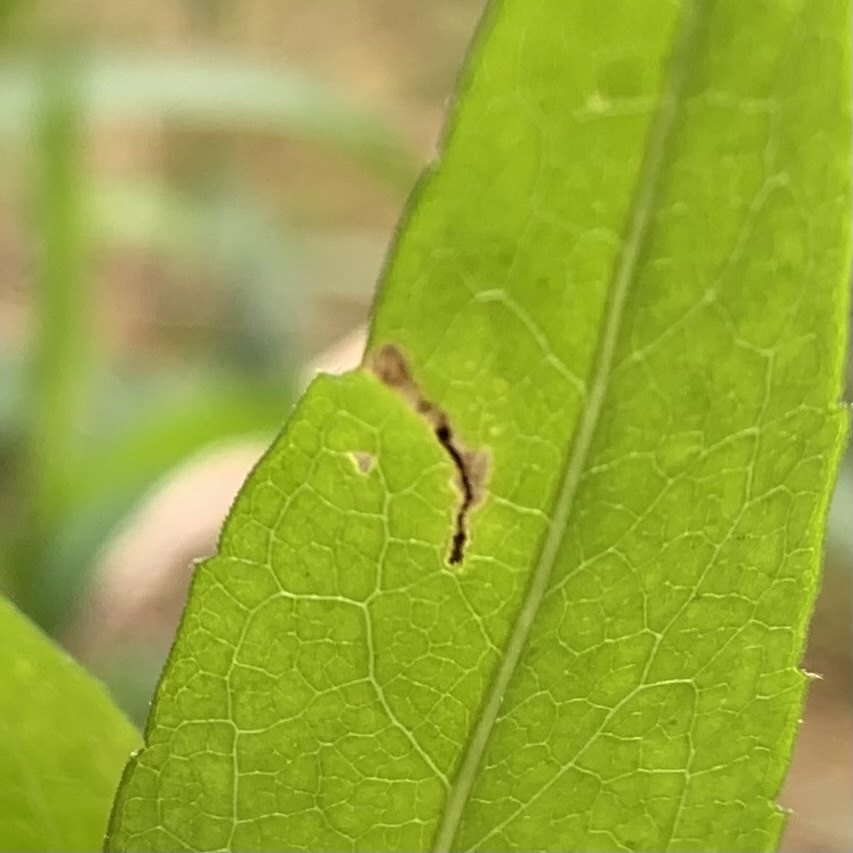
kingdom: Animalia
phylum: Arthropoda
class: Insecta
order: Lepidoptera
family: Bucculatricidae
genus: Bucculatrix
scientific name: Bucculatrix angustata
